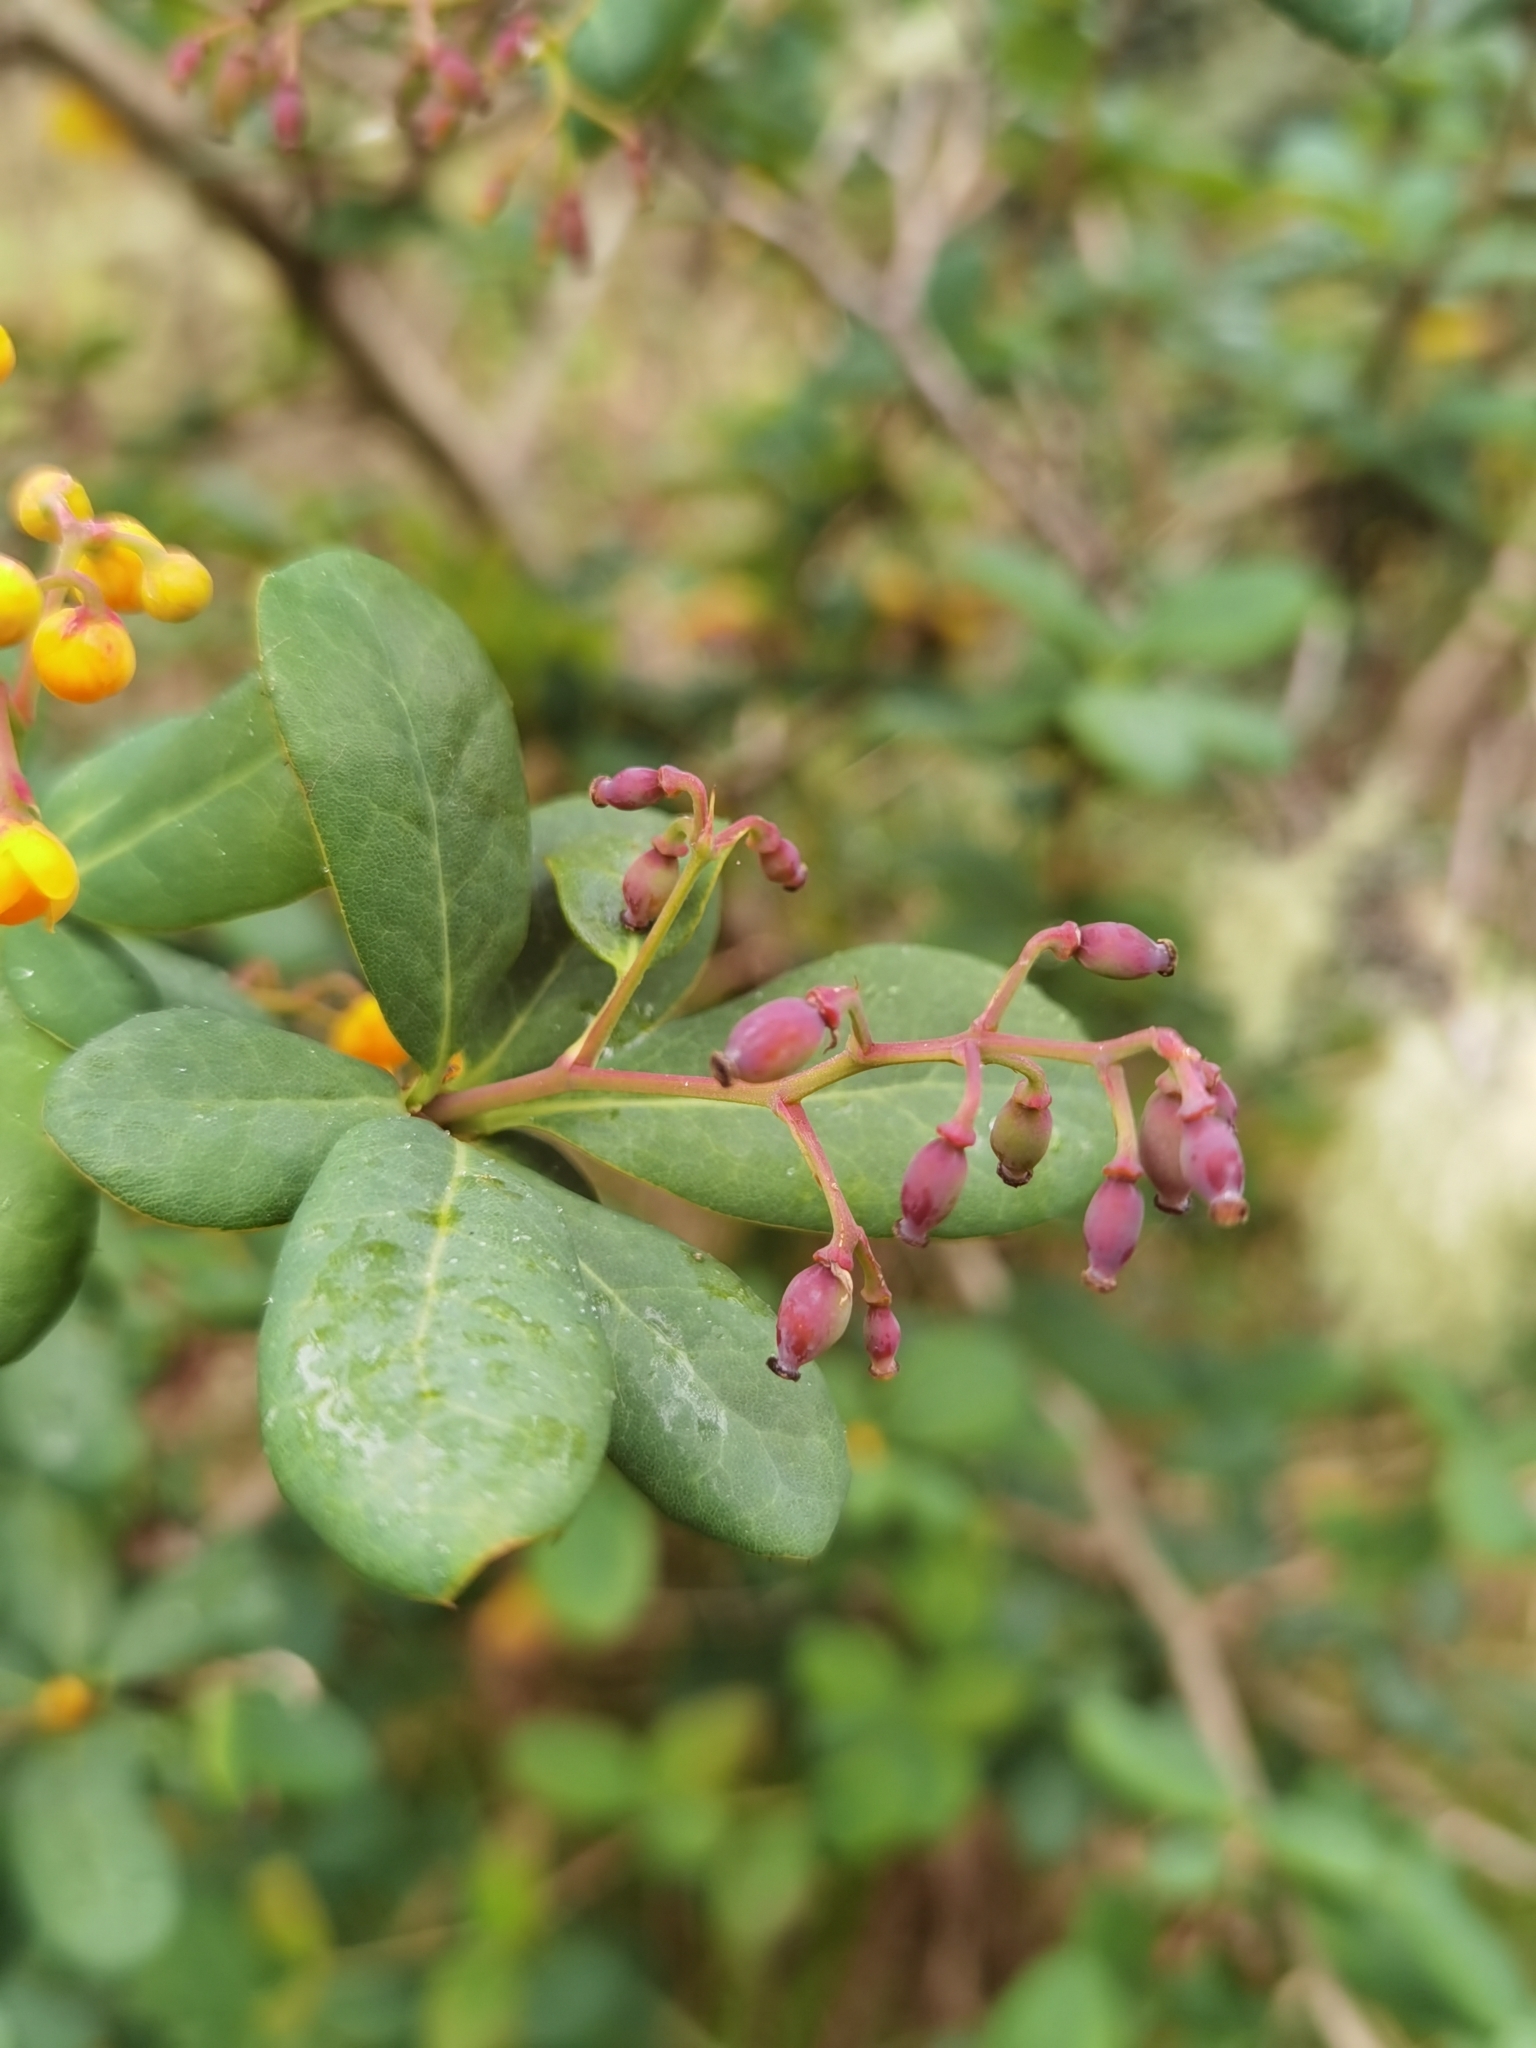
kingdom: Plantae
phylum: Tracheophyta
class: Magnoliopsida
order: Ranunculales
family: Berberidaceae
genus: Berberis
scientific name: Berberis nigricans
